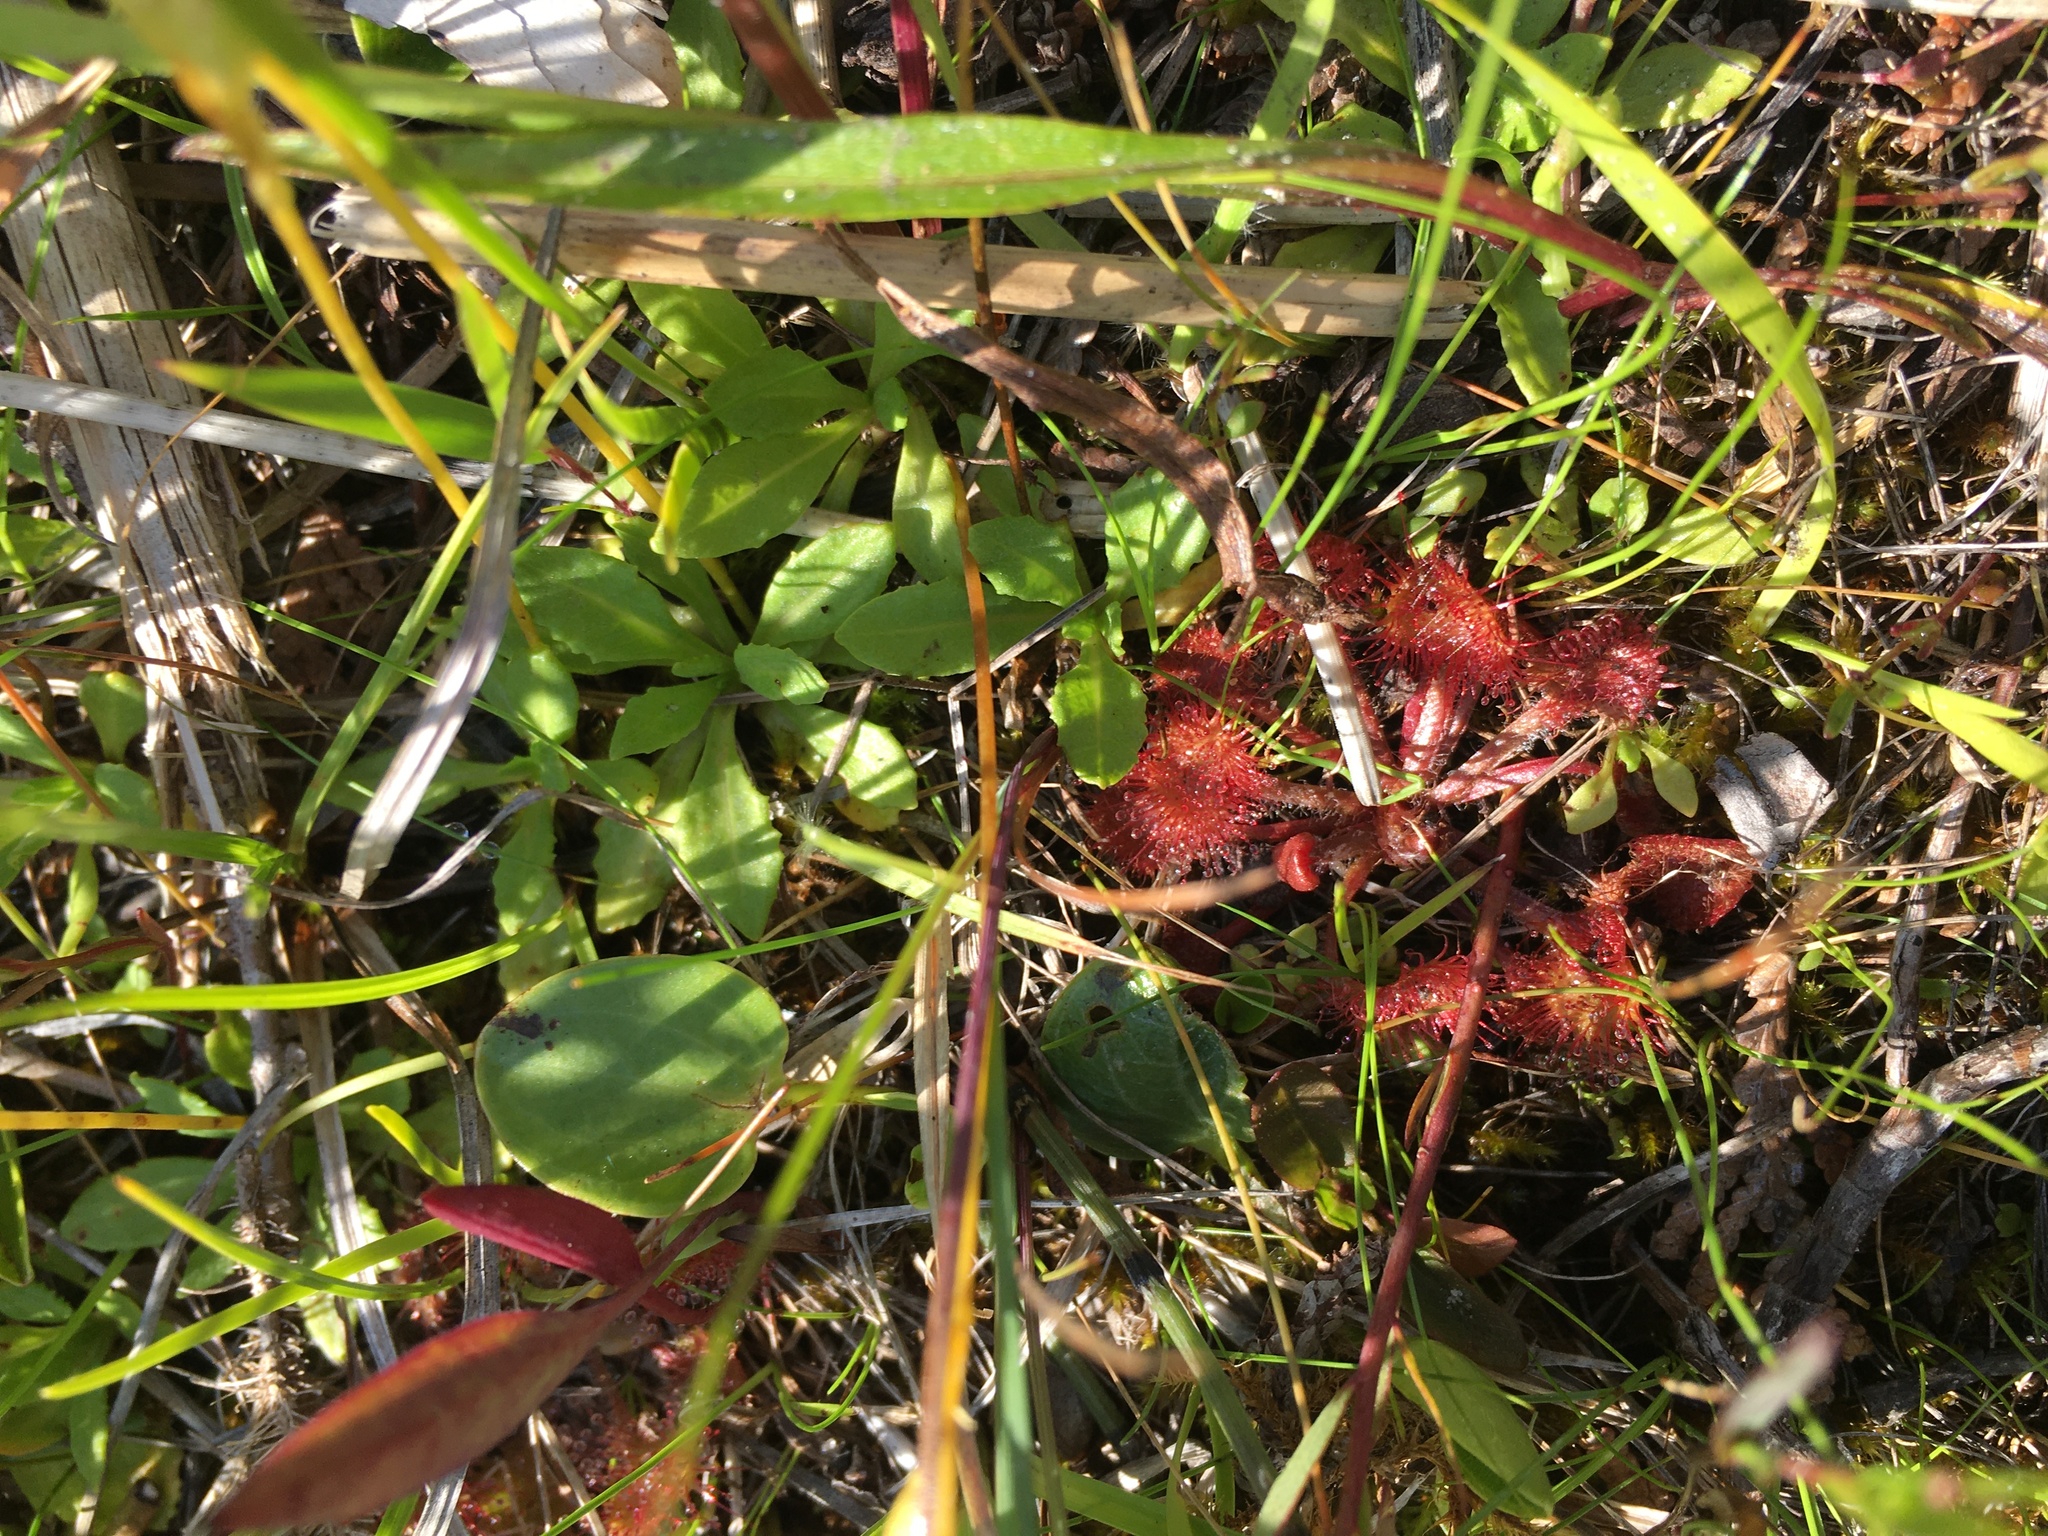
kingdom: Plantae
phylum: Tracheophyta
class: Magnoliopsida
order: Caryophyllales
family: Droseraceae
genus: Drosera
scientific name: Drosera rotundifolia
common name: Round-leaved sundew
